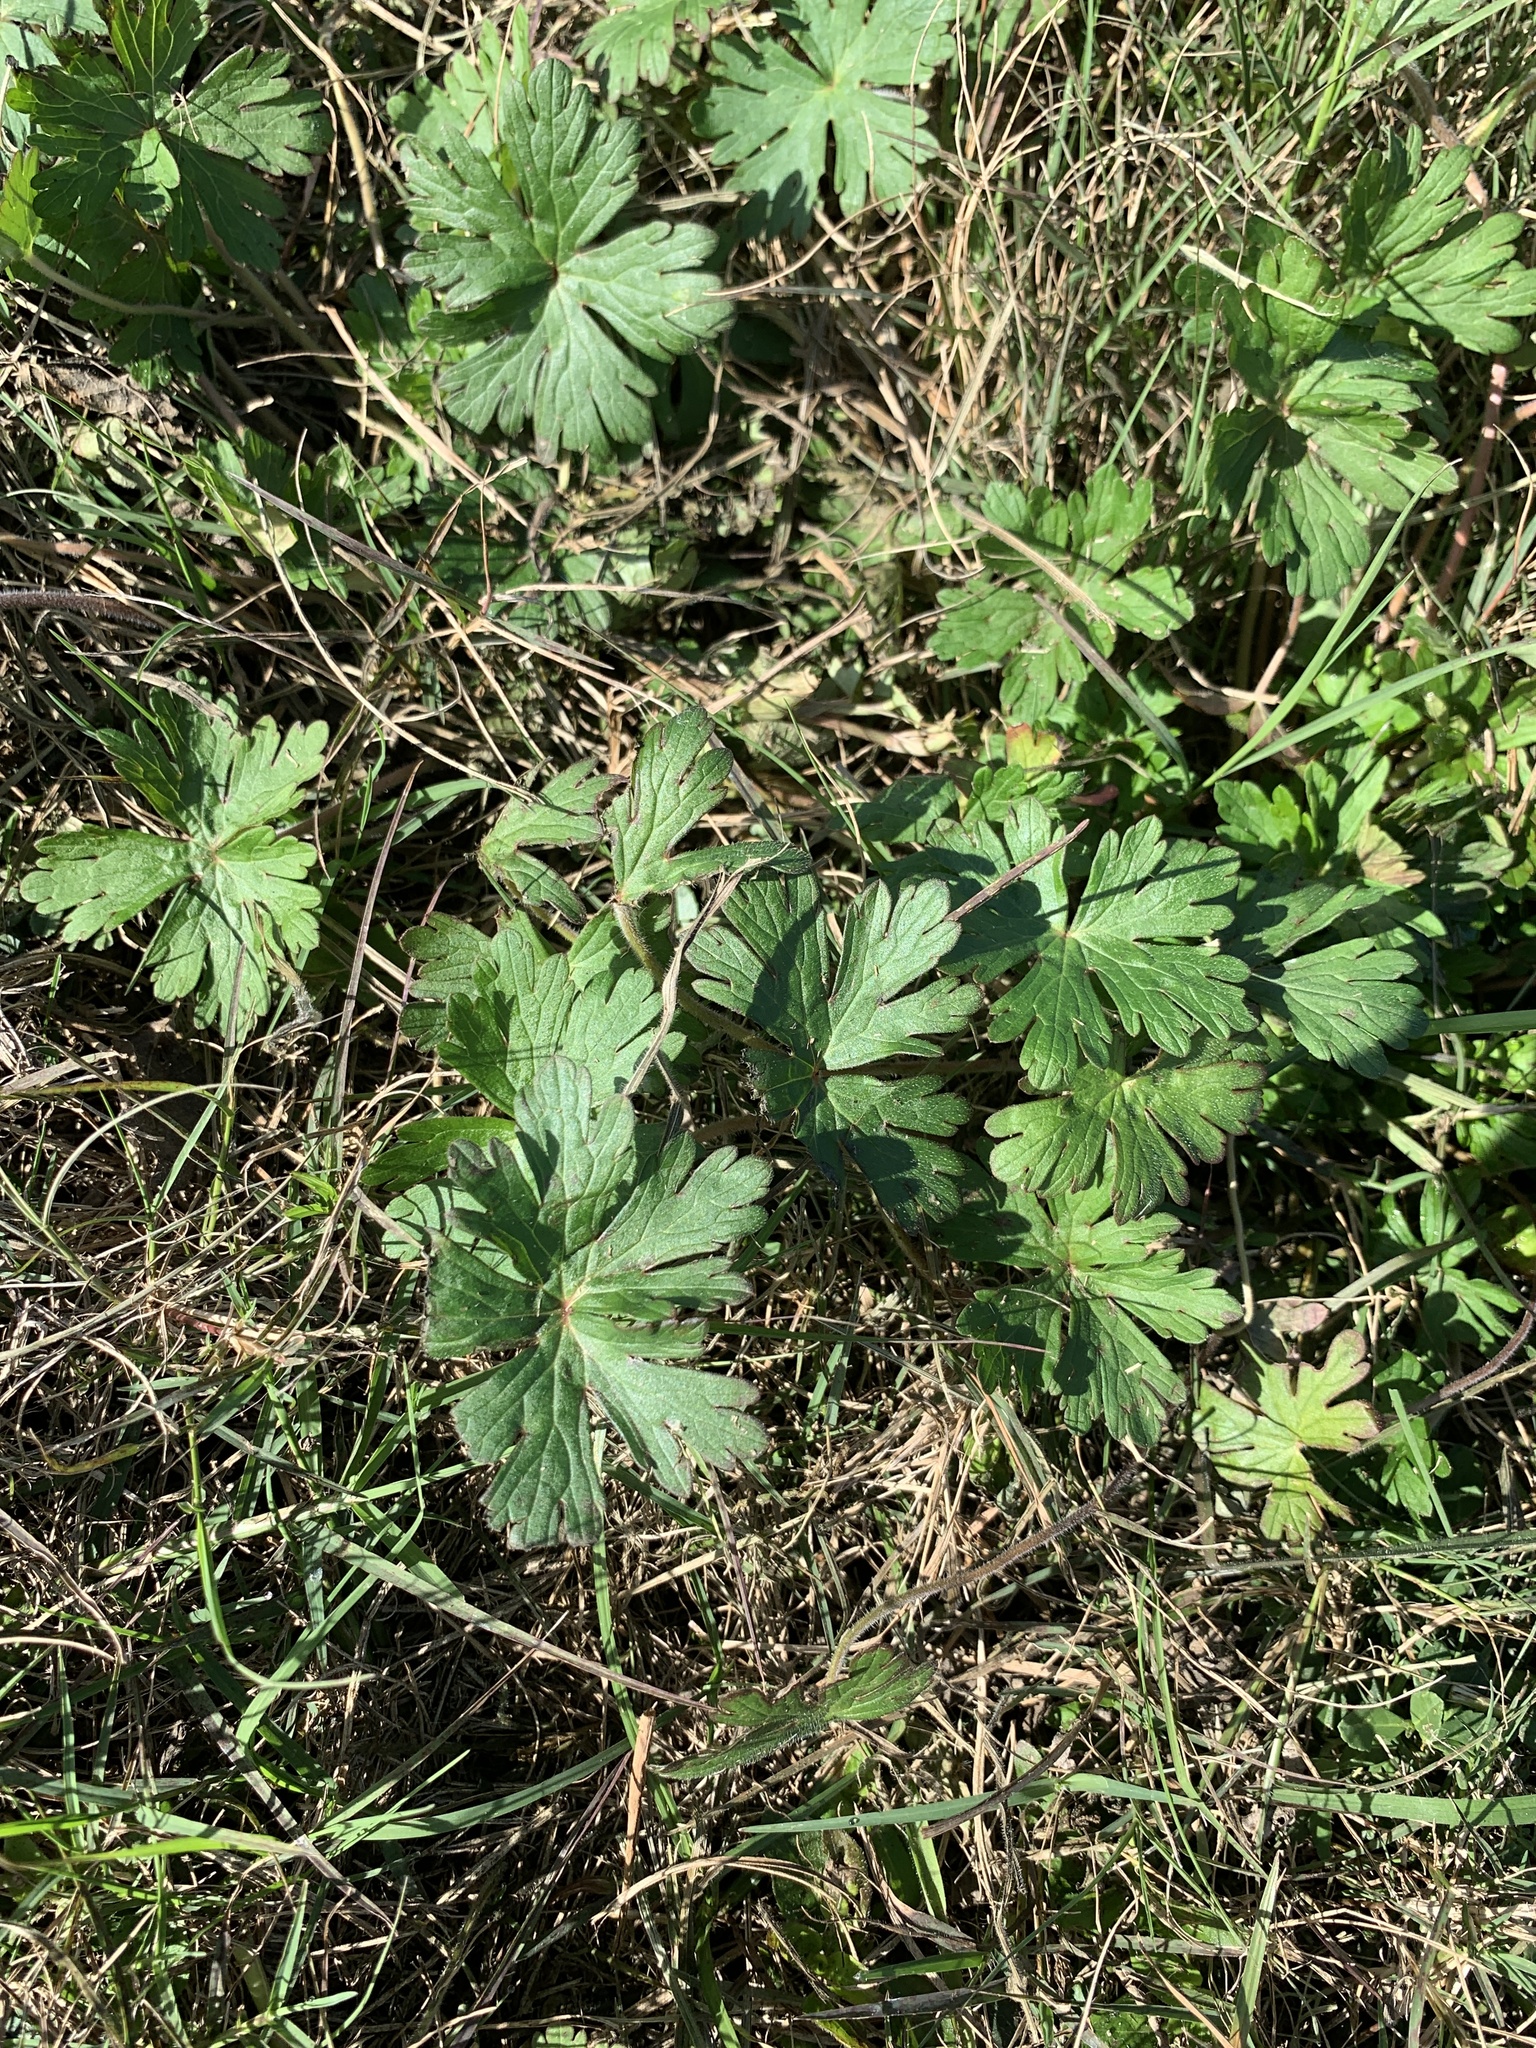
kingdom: Plantae
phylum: Tracheophyta
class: Magnoliopsida
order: Geraniales
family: Geraniaceae
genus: Geranium
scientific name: Geranium carolinianum
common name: Carolina crane's-bill
